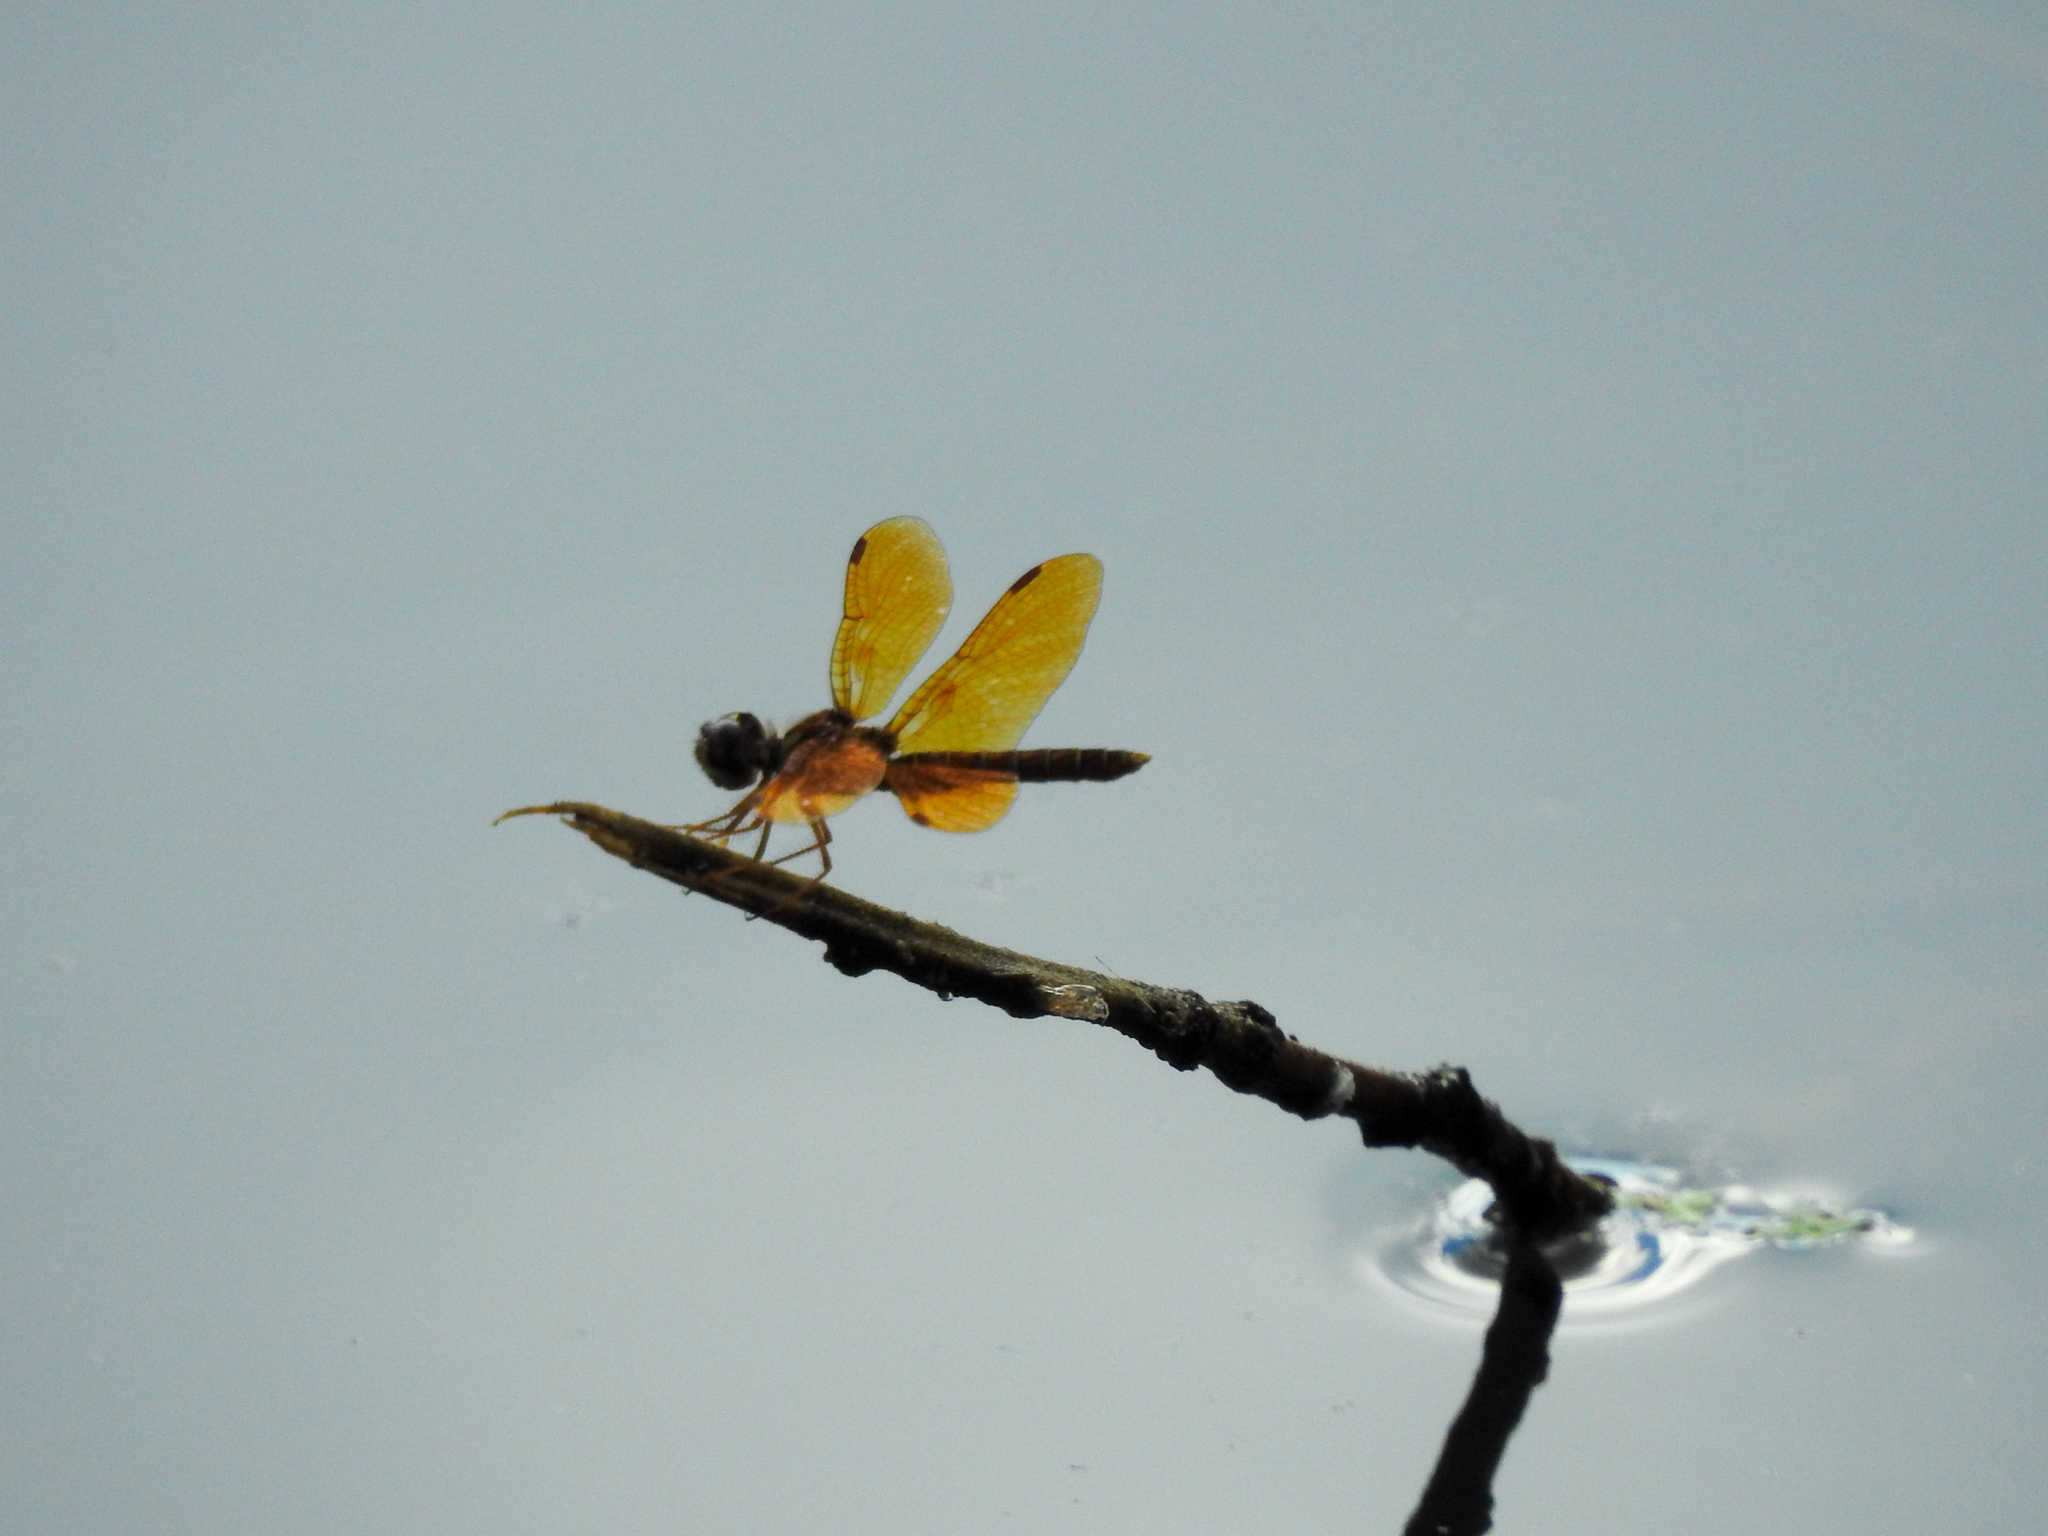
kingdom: Animalia
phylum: Arthropoda
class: Insecta
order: Odonata
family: Libellulidae
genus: Perithemis
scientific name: Perithemis tenera
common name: Eastern amberwing
